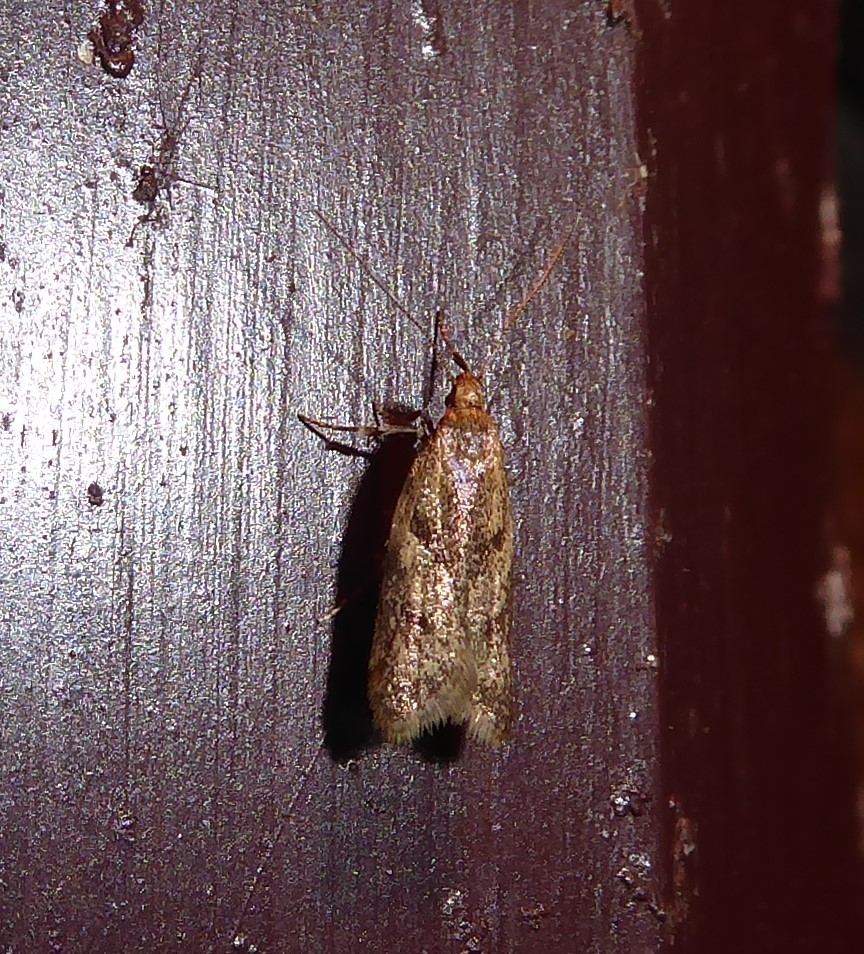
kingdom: Animalia
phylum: Arthropoda
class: Insecta
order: Lepidoptera
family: Oecophoridae
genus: Gymnobathra
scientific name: Gymnobathra tholodella
